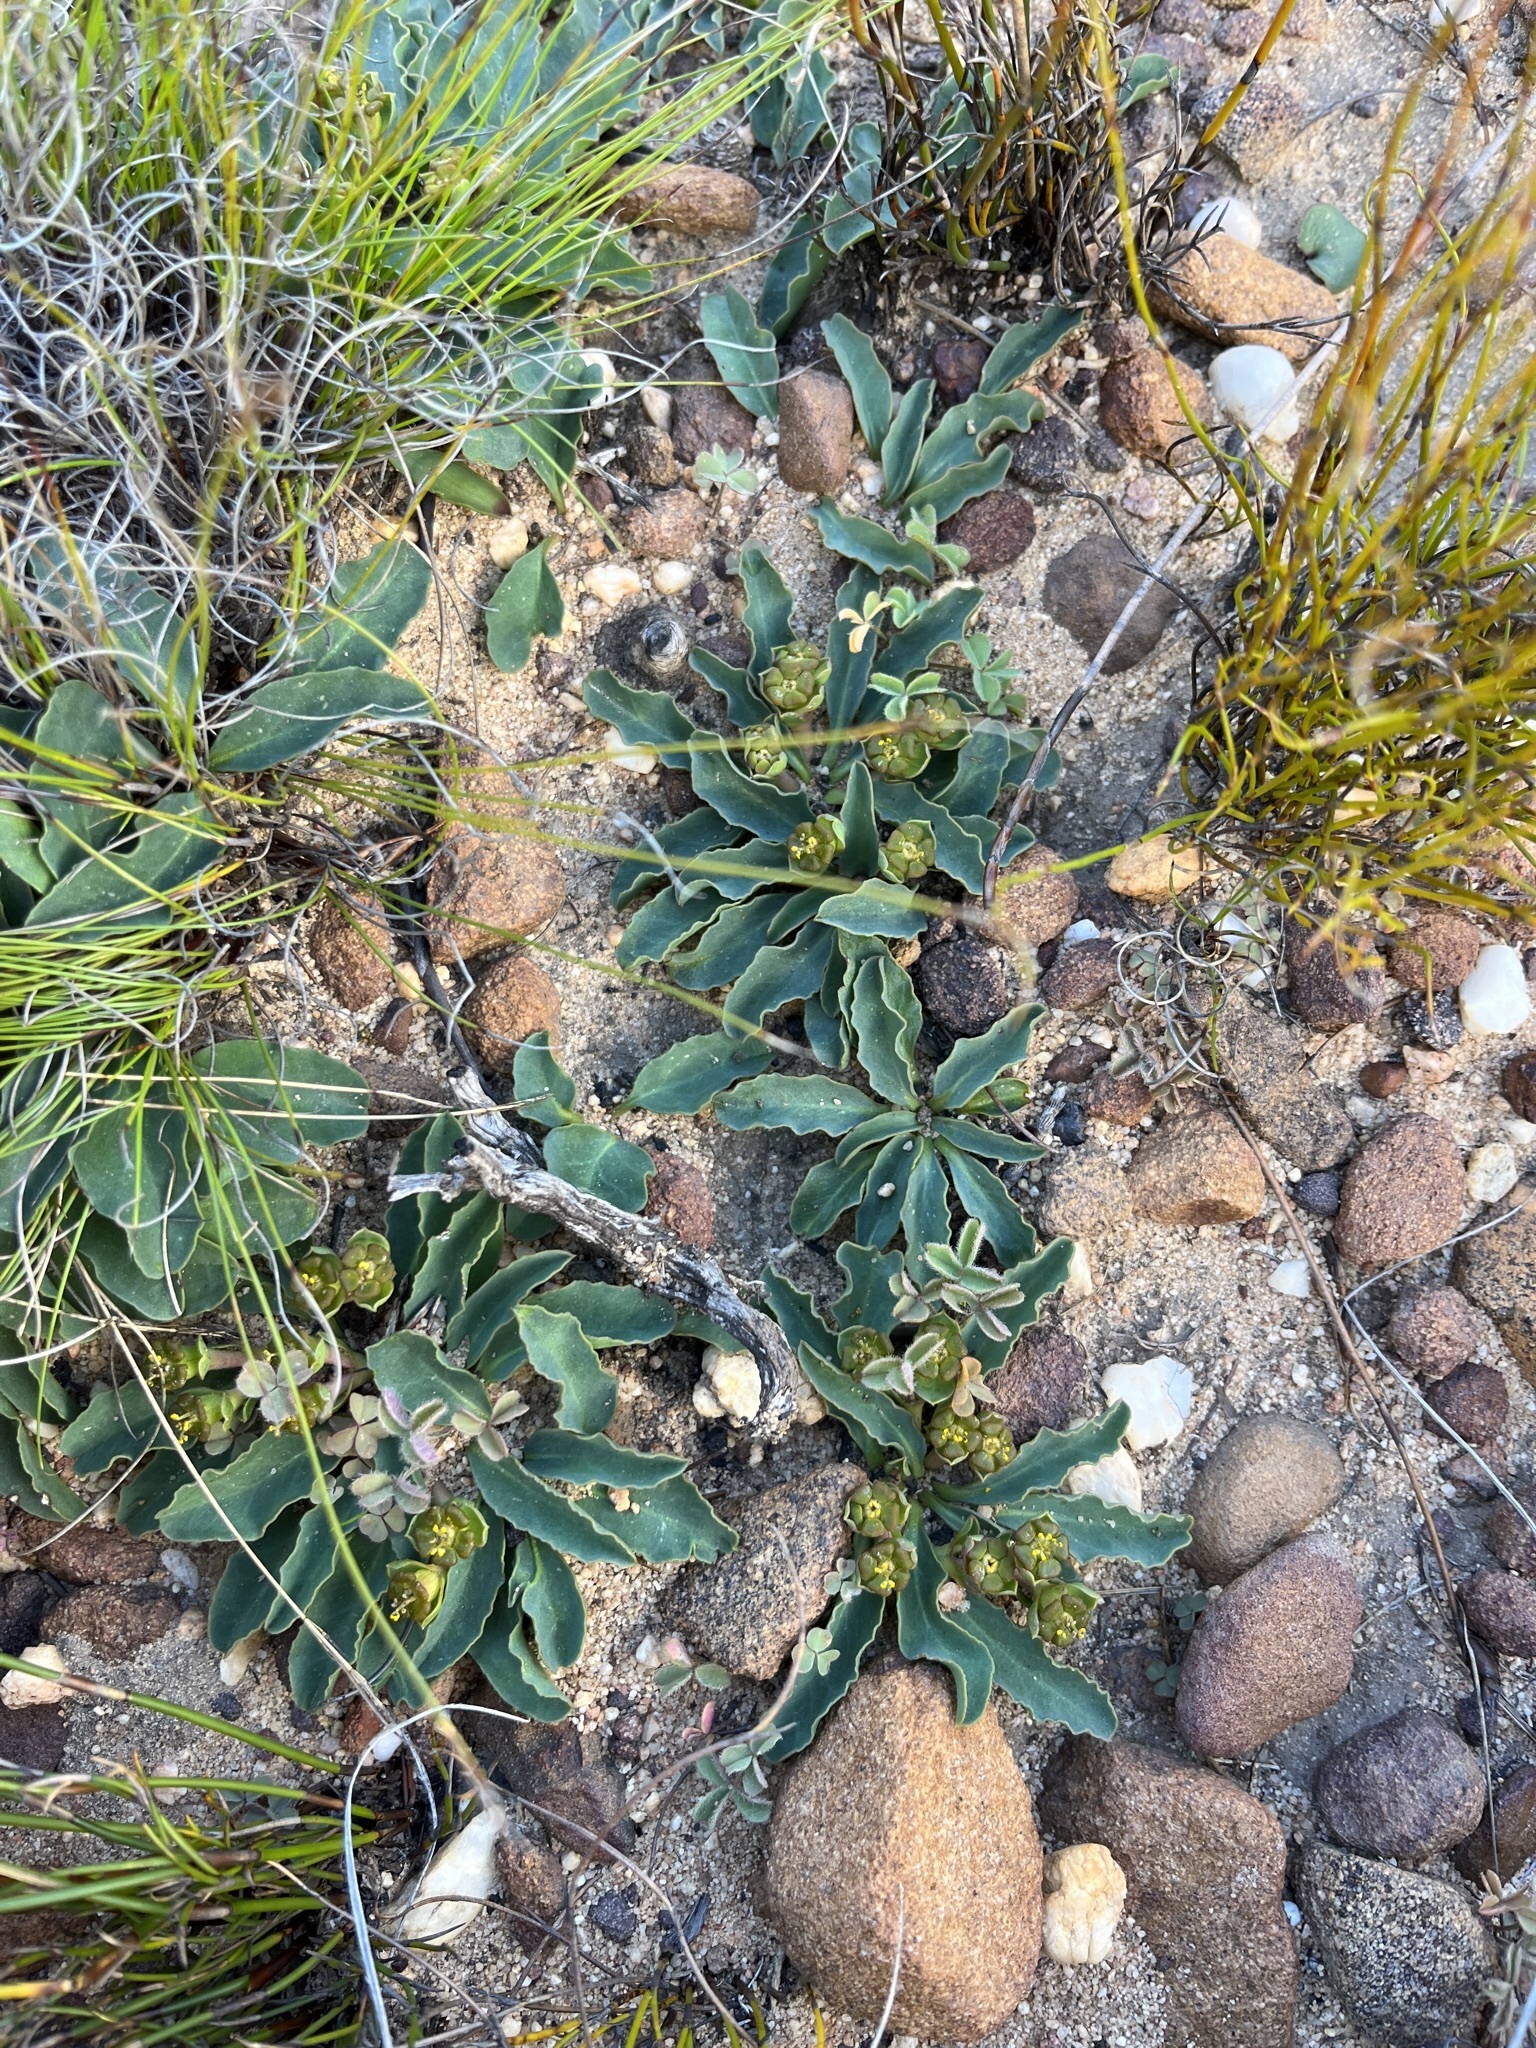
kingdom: Plantae
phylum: Tracheophyta
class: Magnoliopsida
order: Malpighiales
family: Euphorbiaceae
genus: Euphorbia
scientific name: Euphorbia tuberosa
